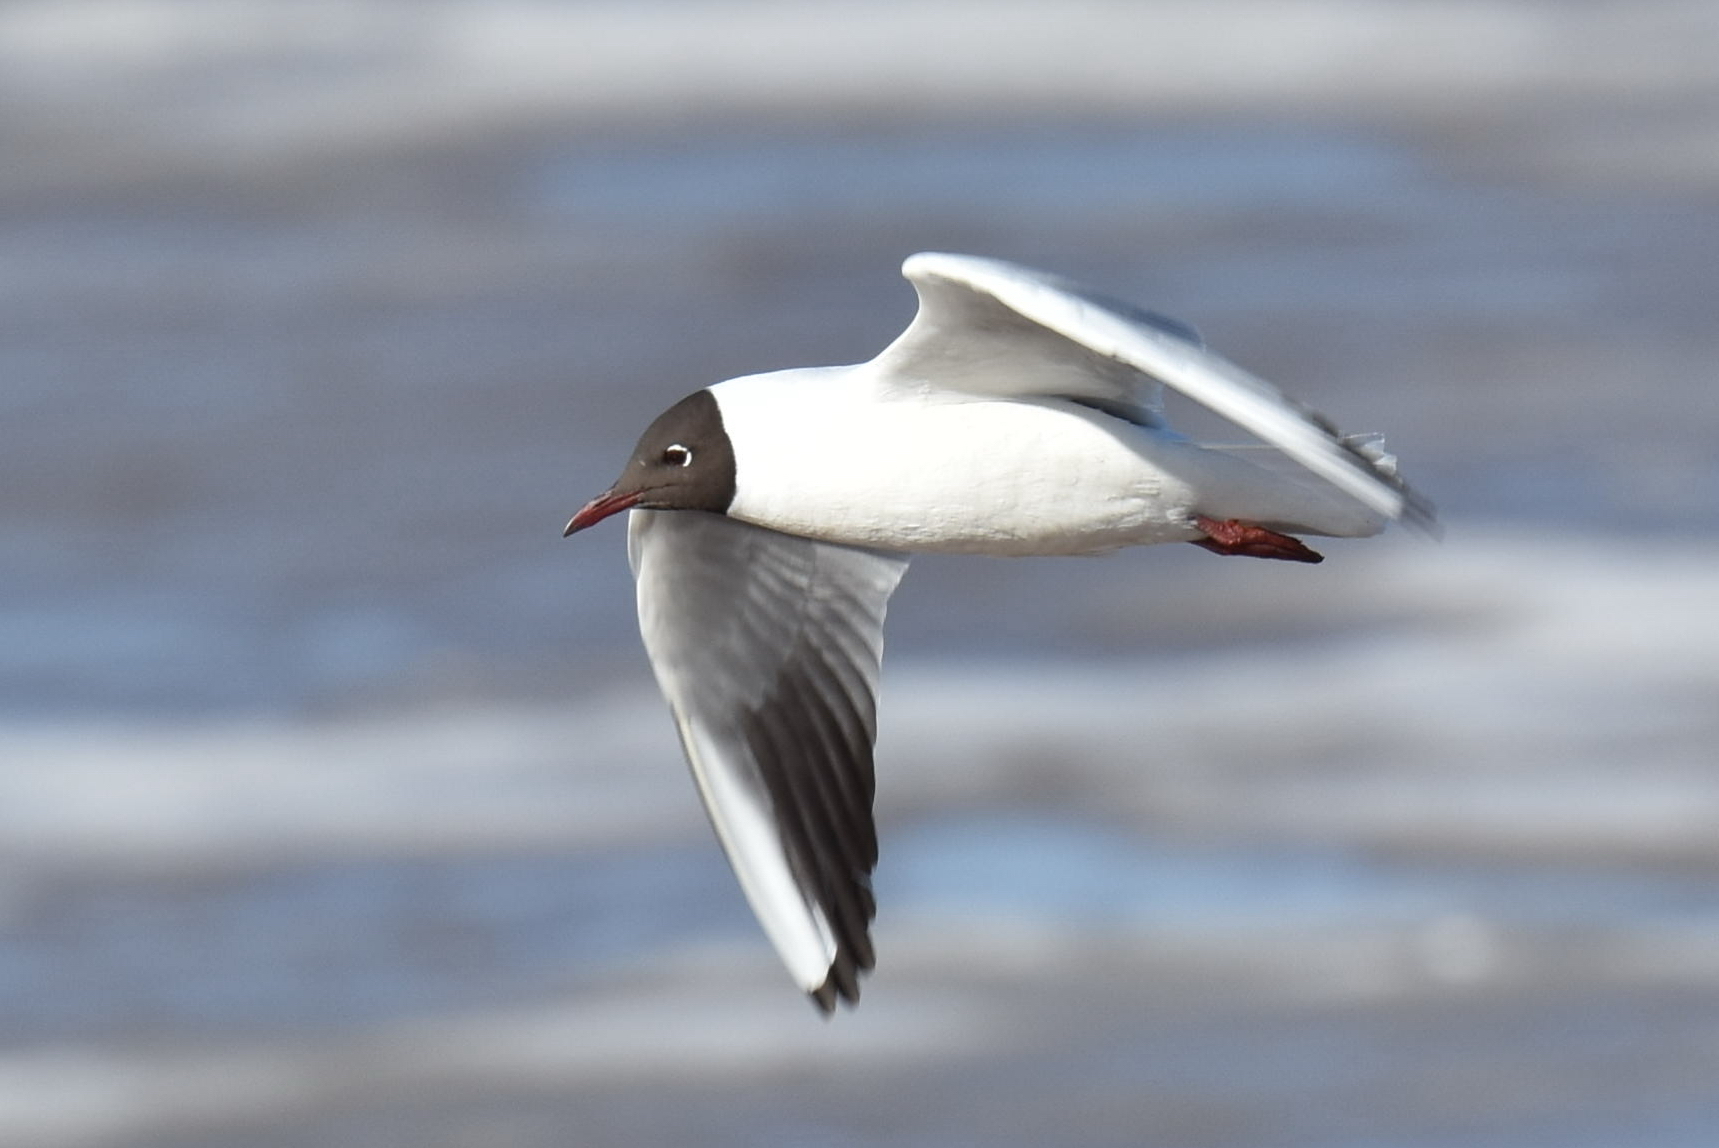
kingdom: Animalia
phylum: Chordata
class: Aves
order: Charadriiformes
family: Laridae
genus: Chroicocephalus
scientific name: Chroicocephalus ridibundus
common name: Black-headed gull
